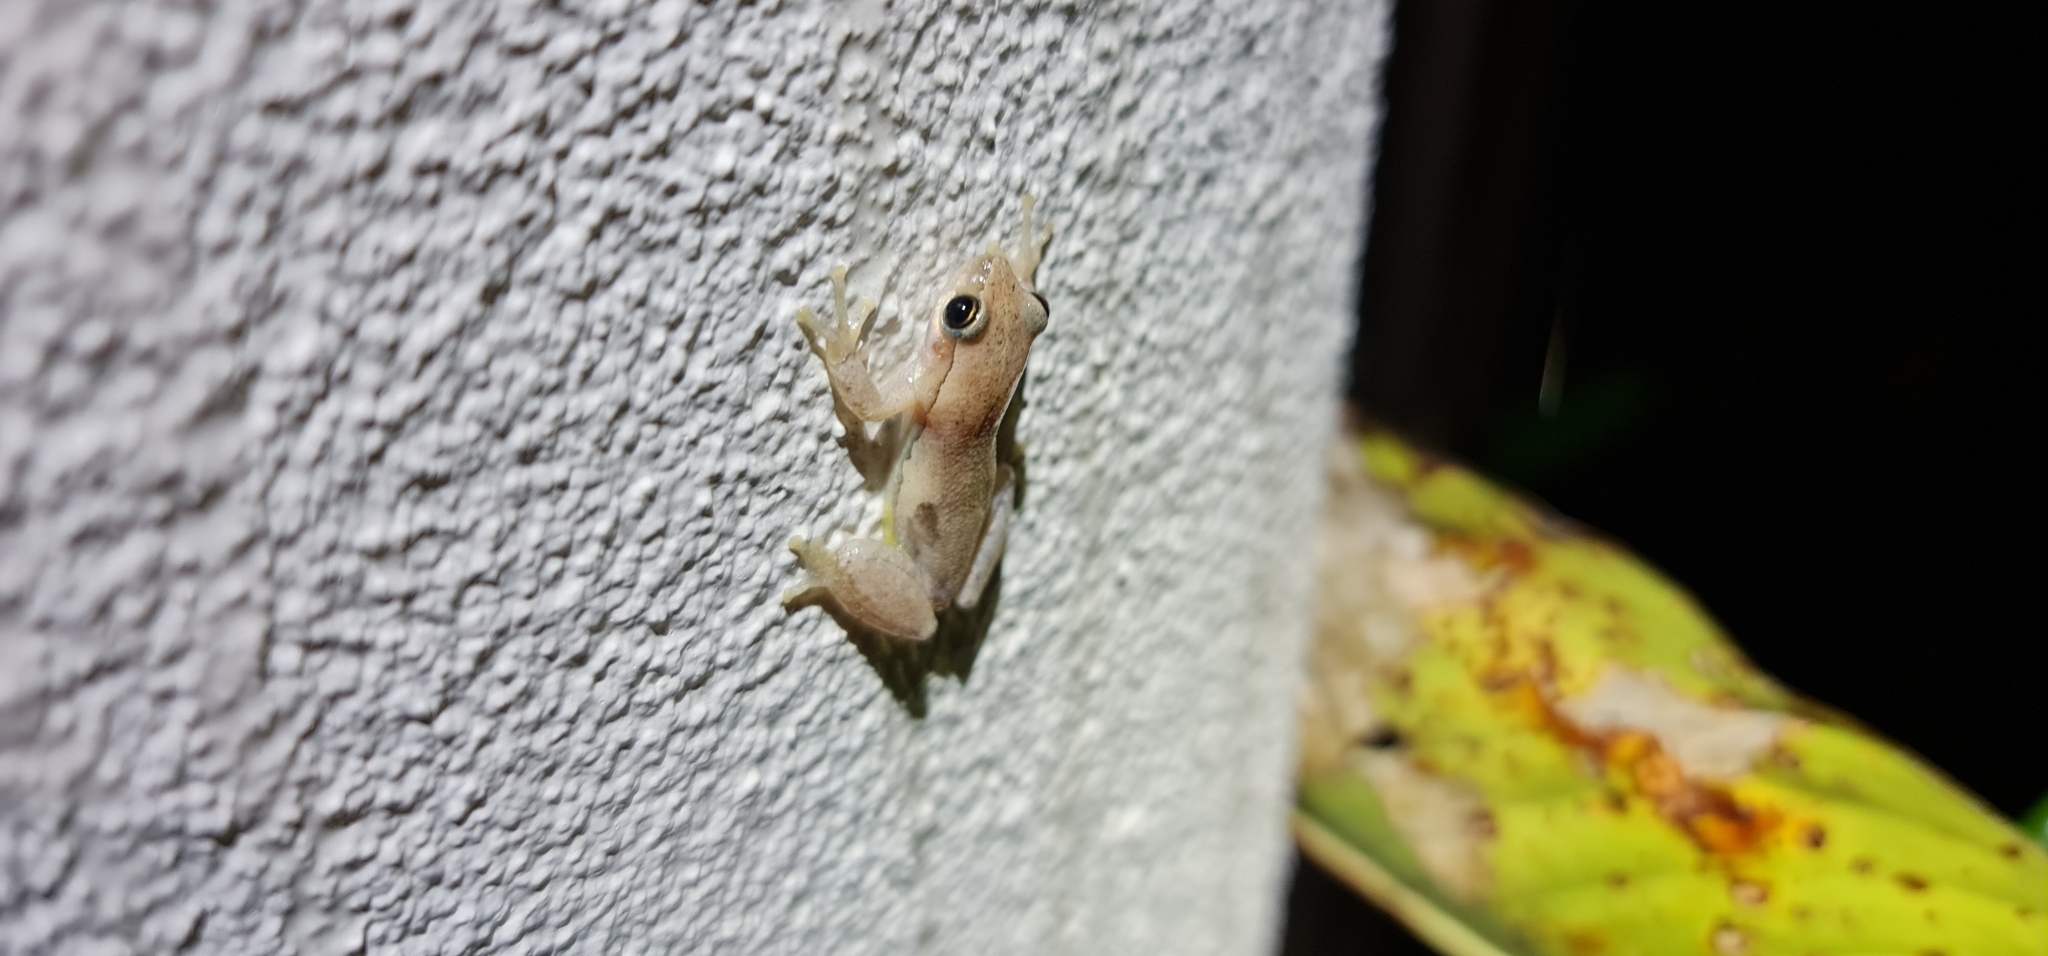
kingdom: Animalia
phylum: Chordata
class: Amphibia
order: Anura
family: Pelodryadidae
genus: Litoria
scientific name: Litoria rubella
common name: Desert tree frog
